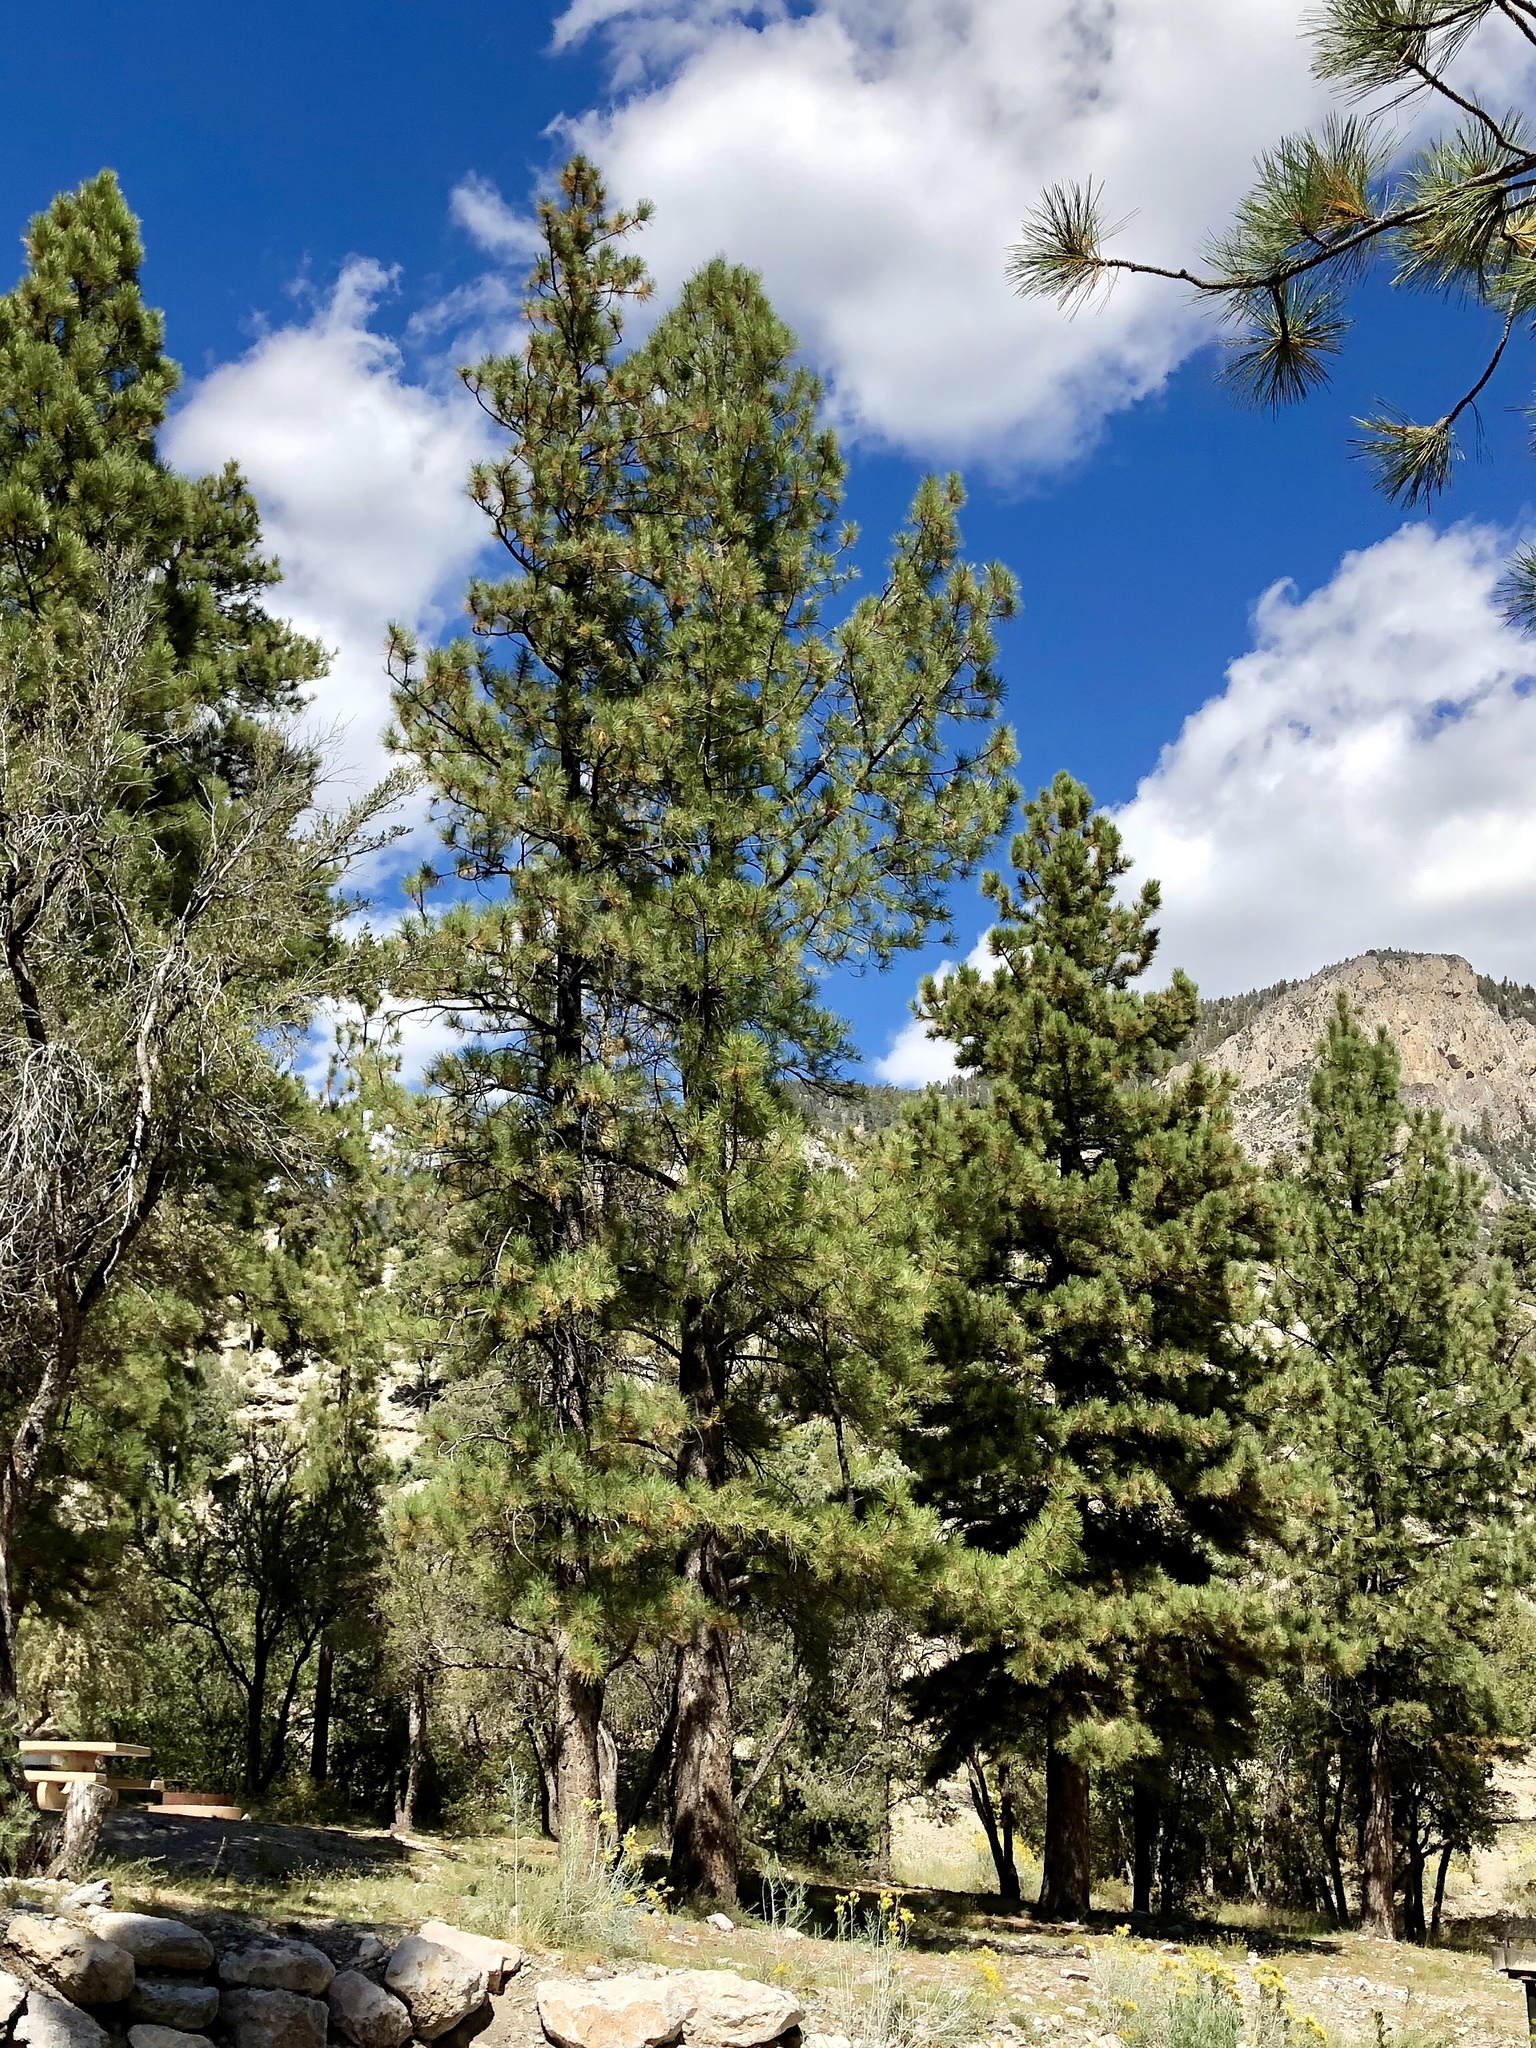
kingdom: Plantae
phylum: Tracheophyta
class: Pinopsida
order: Pinales
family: Pinaceae
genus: Pinus
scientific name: Pinus ponderosa
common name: Western yellow-pine
